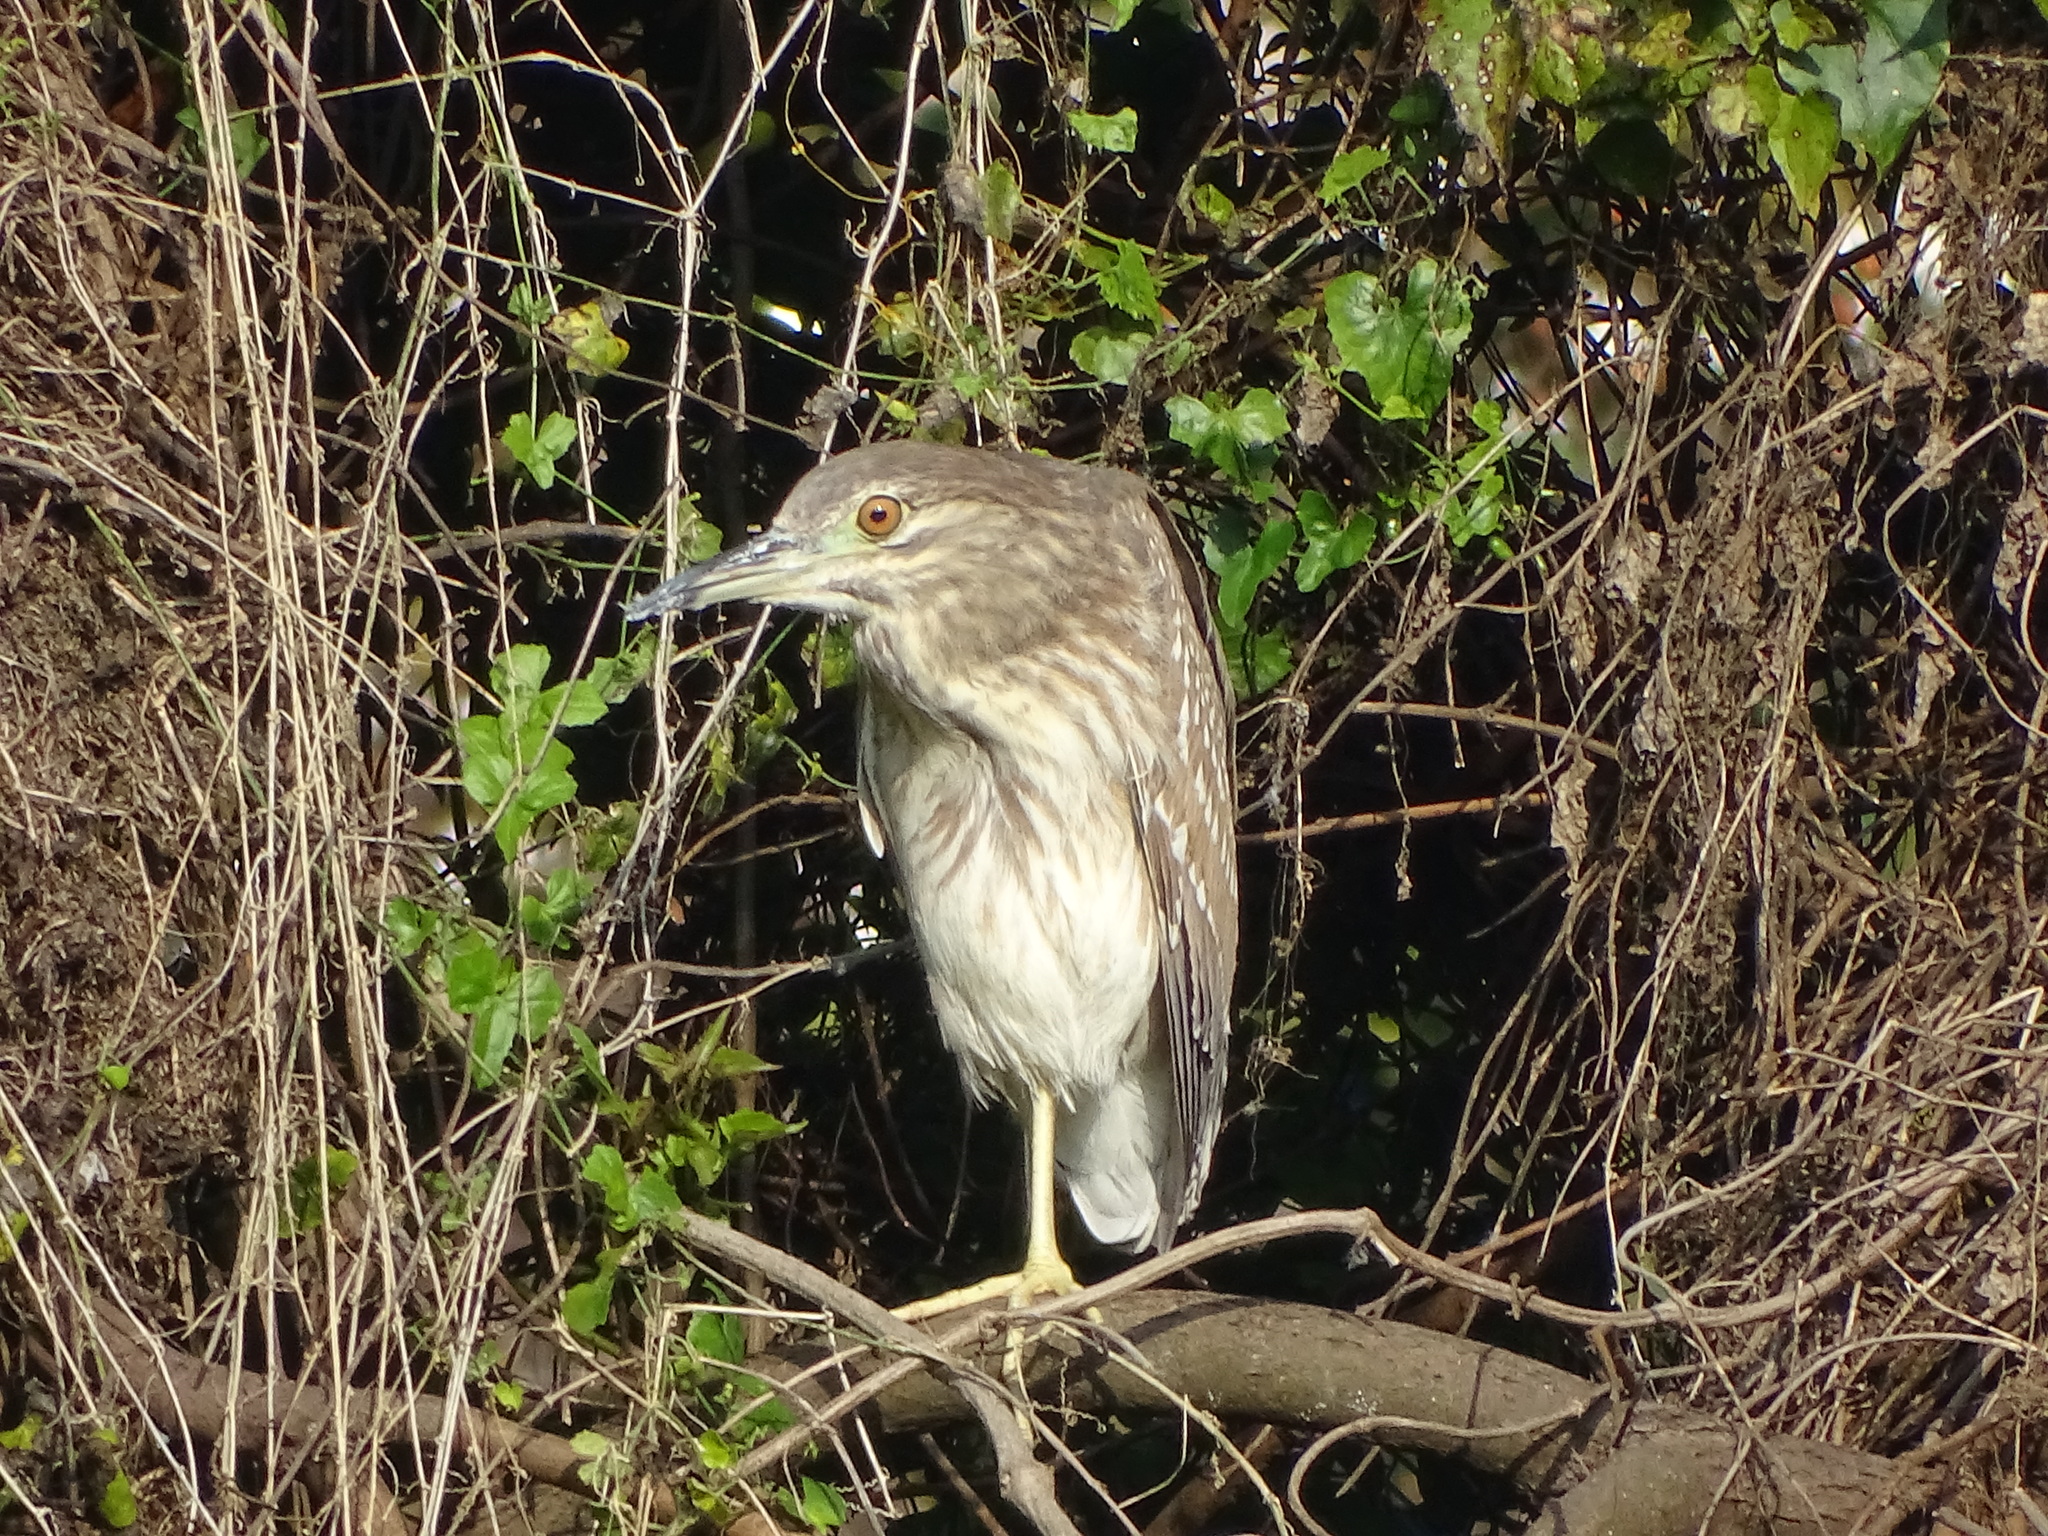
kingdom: Animalia
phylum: Chordata
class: Aves
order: Pelecaniformes
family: Ardeidae
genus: Nycticorax
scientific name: Nycticorax nycticorax
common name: Black-crowned night heron
